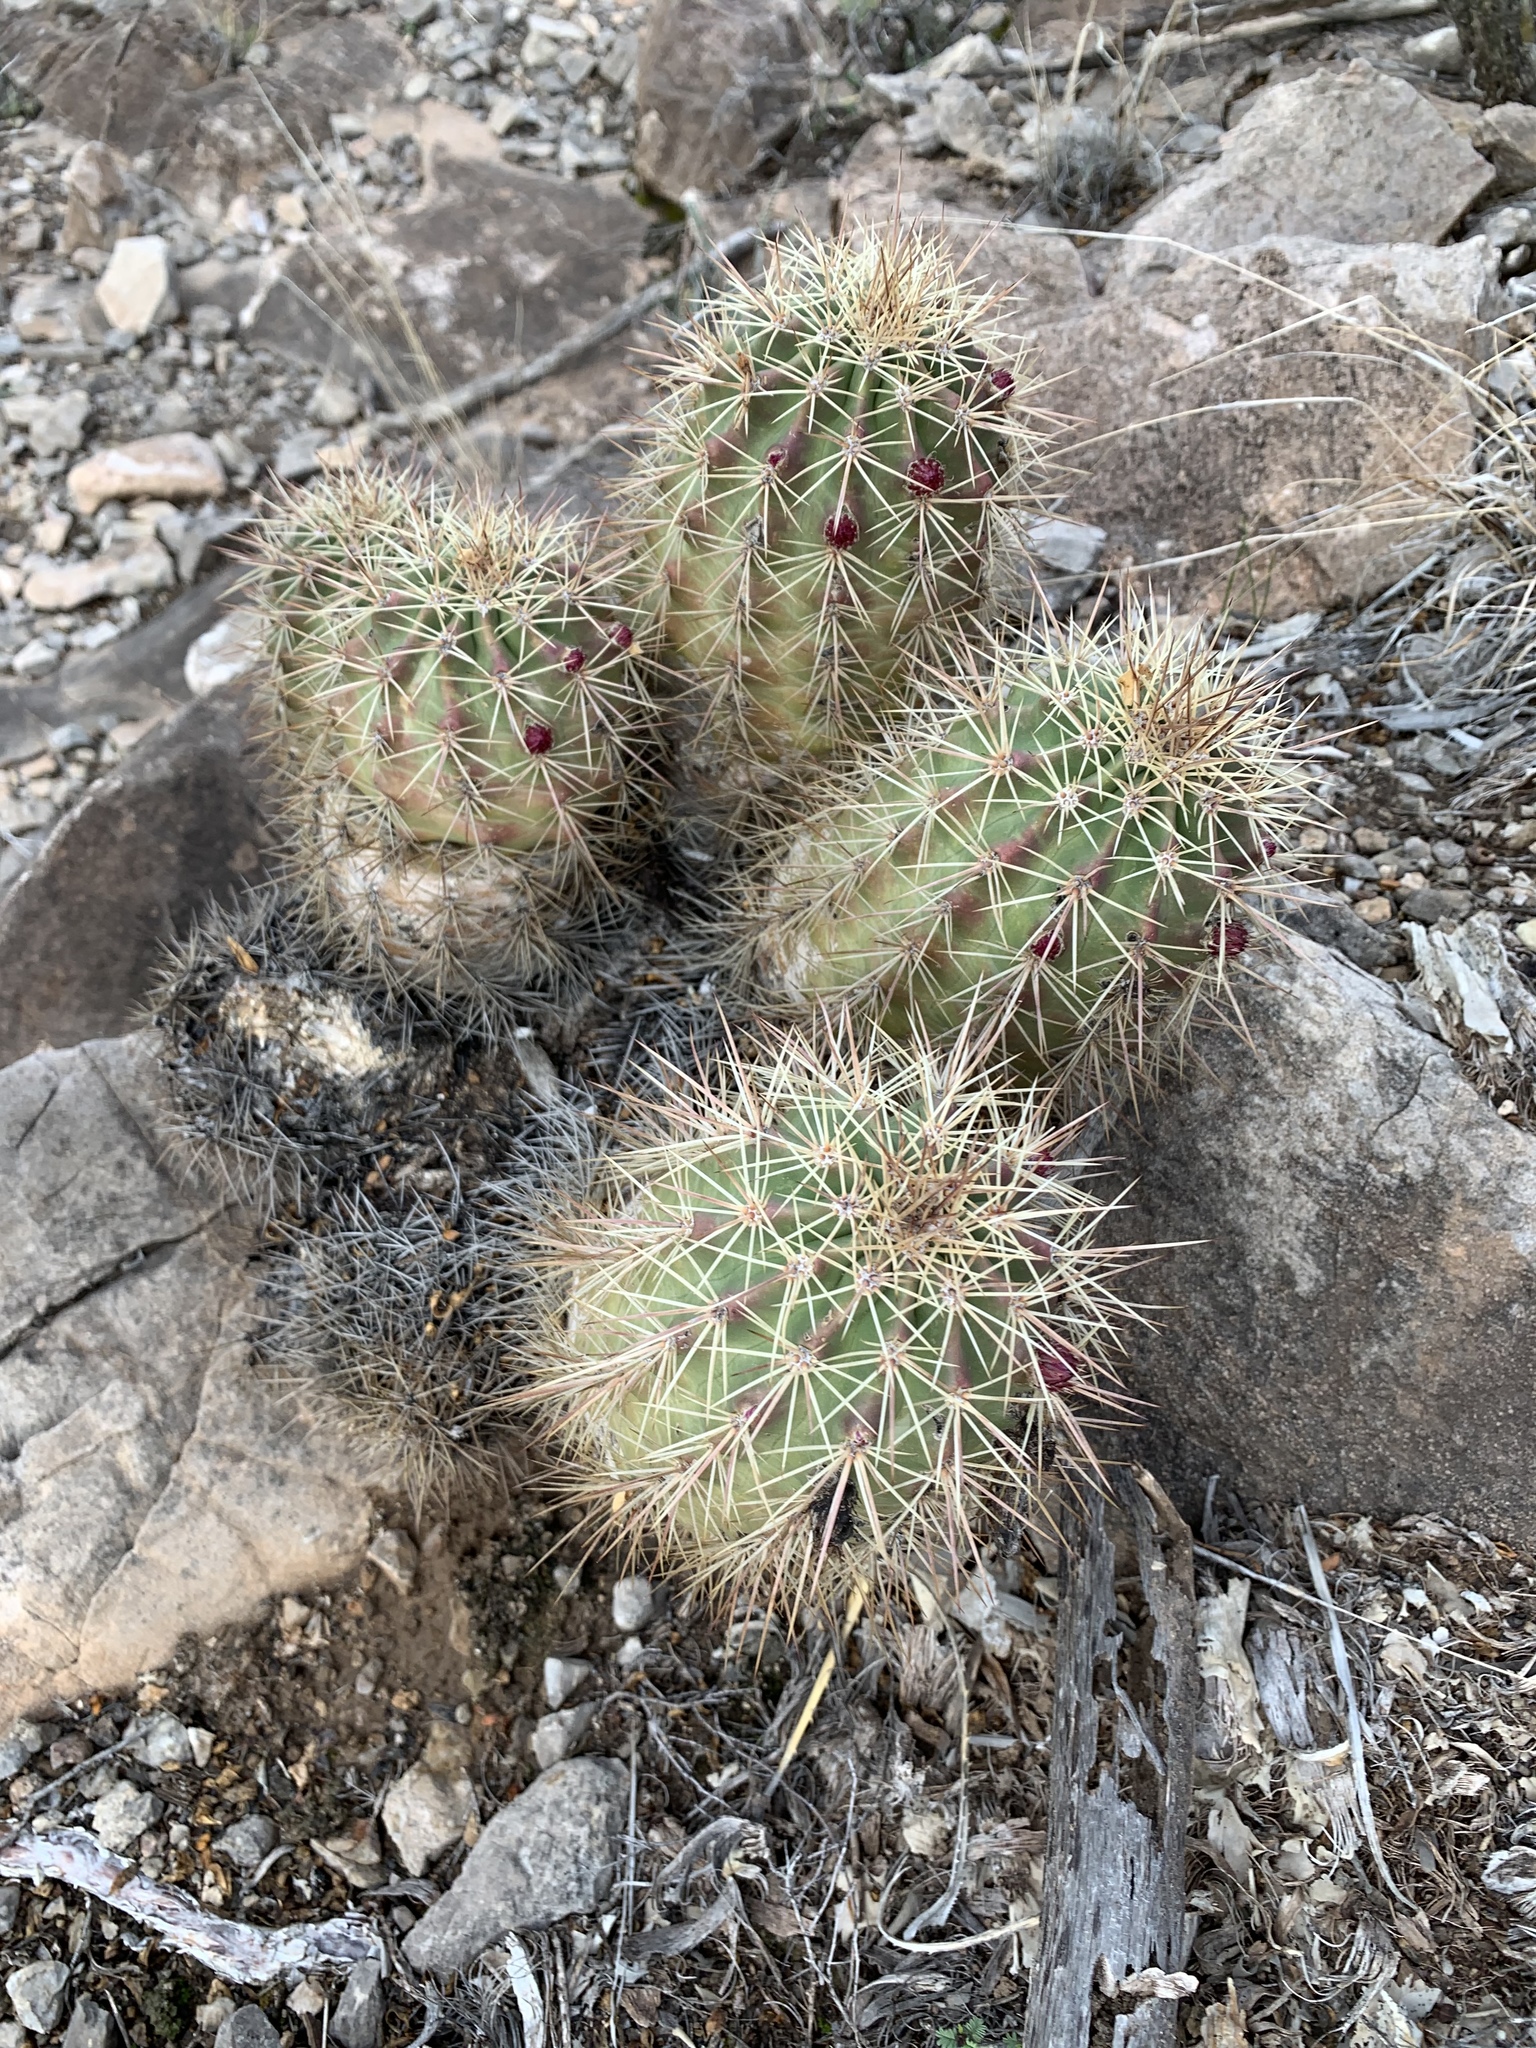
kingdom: Plantae
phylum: Tracheophyta
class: Magnoliopsida
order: Caryophyllales
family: Cactaceae
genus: Echinocereus
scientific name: Echinocereus coccineus
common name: Scarlet hedgehog cactus
